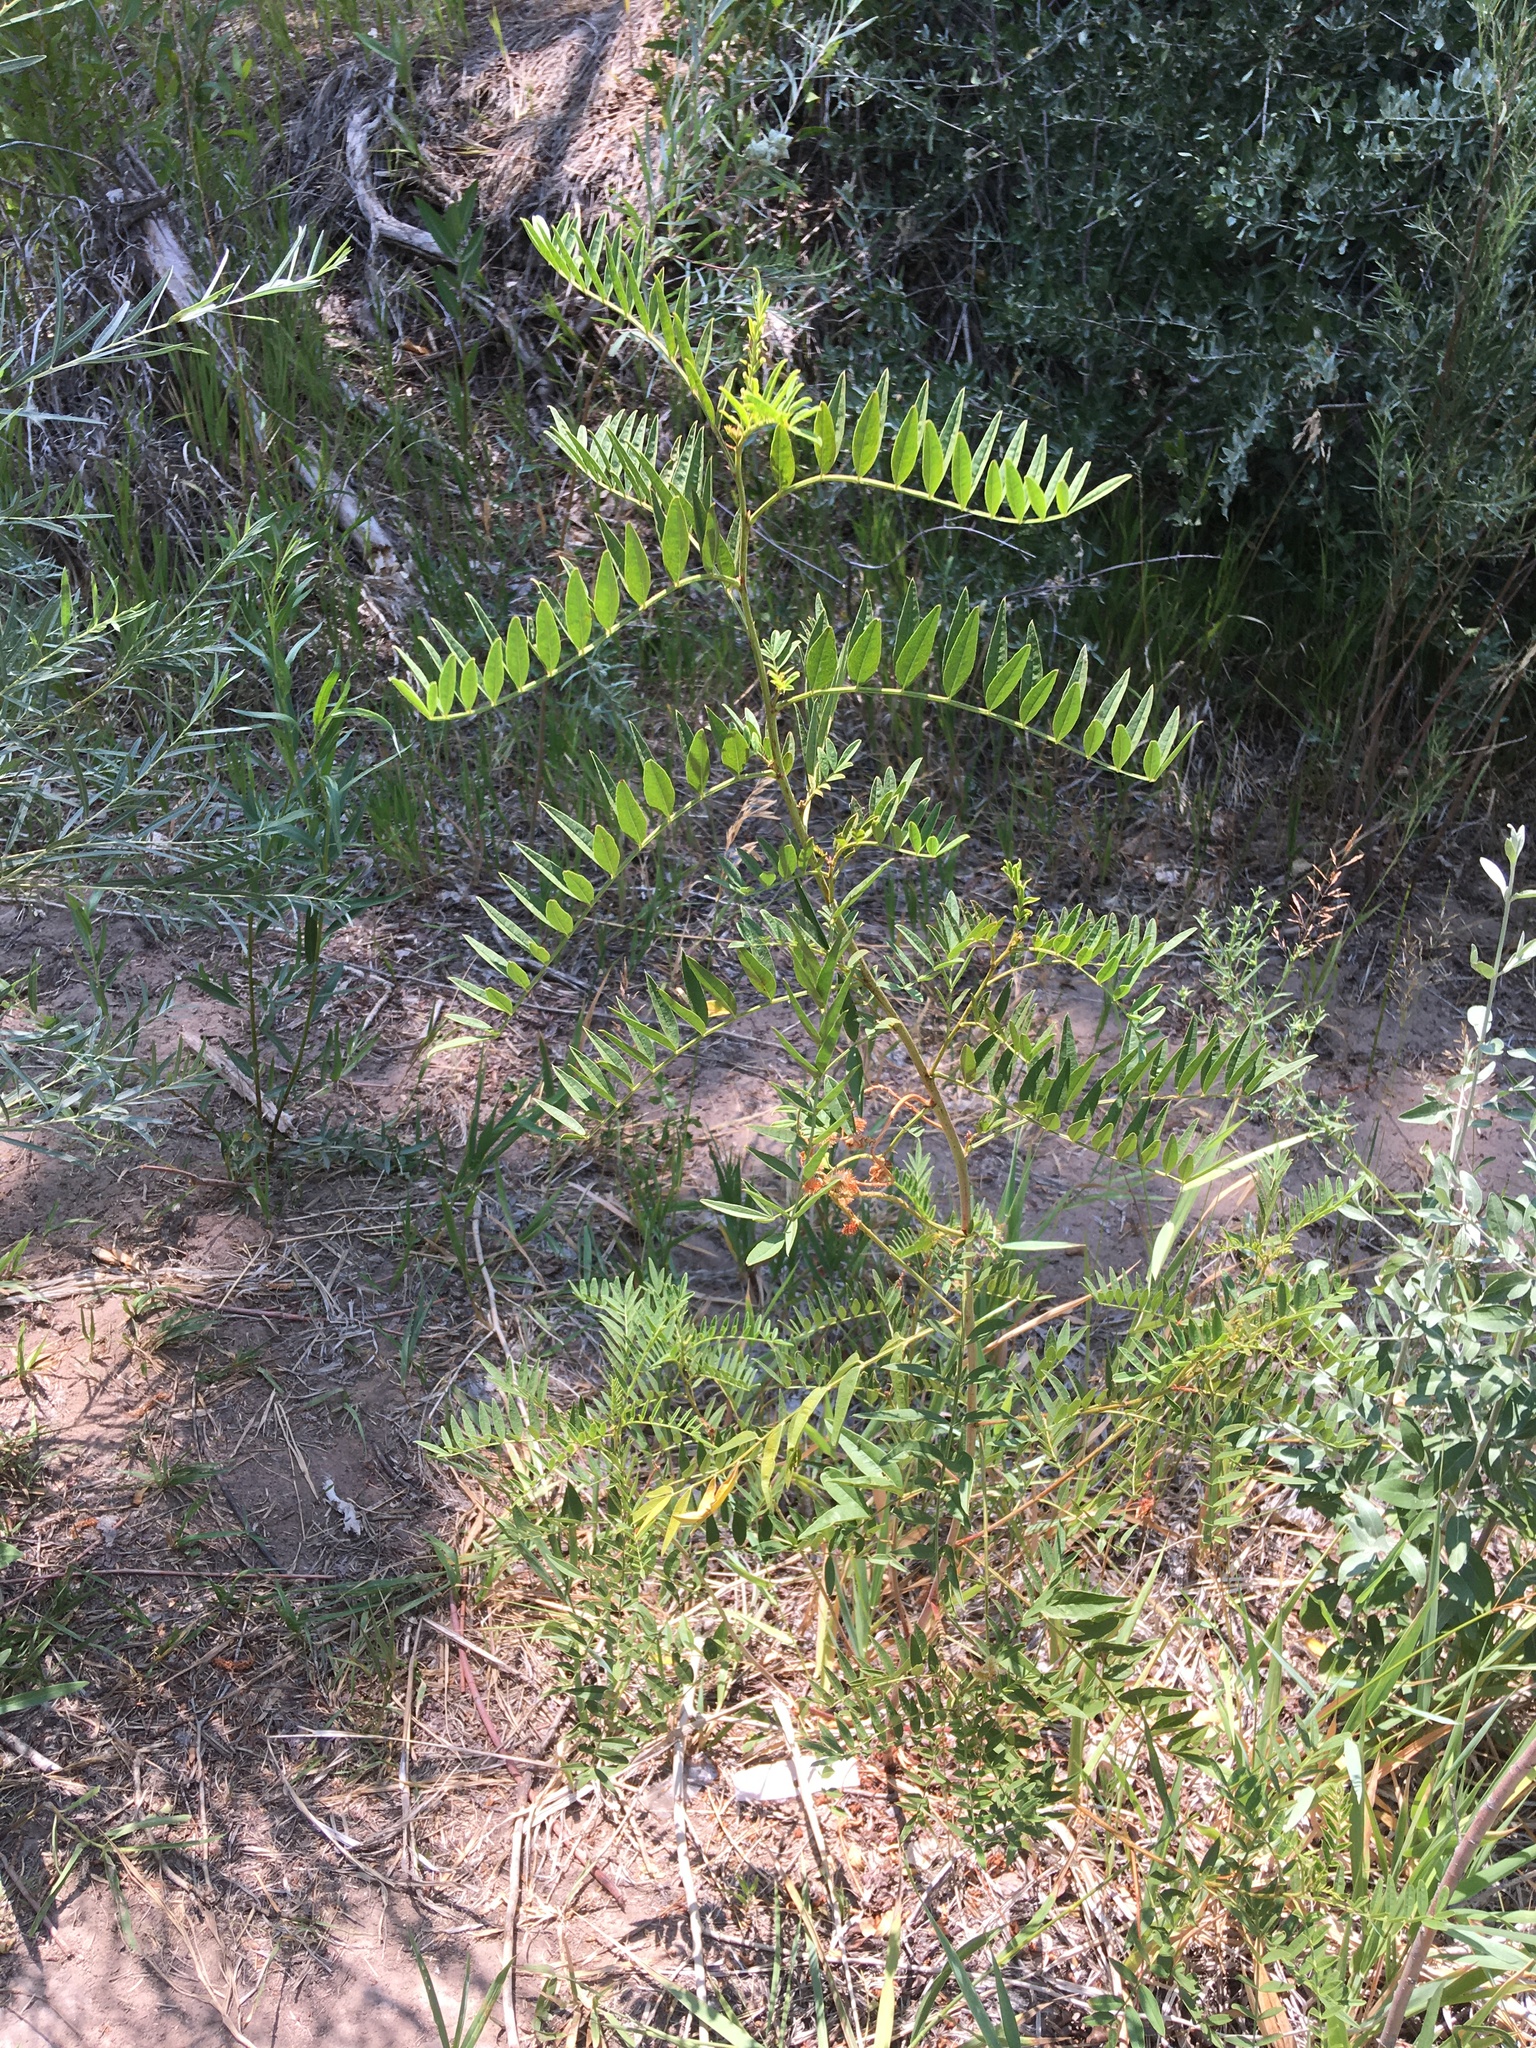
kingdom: Plantae
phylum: Tracheophyta
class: Magnoliopsida
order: Fabales
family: Fabaceae
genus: Glycyrrhiza
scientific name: Glycyrrhiza lepidota
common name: American liquorice
